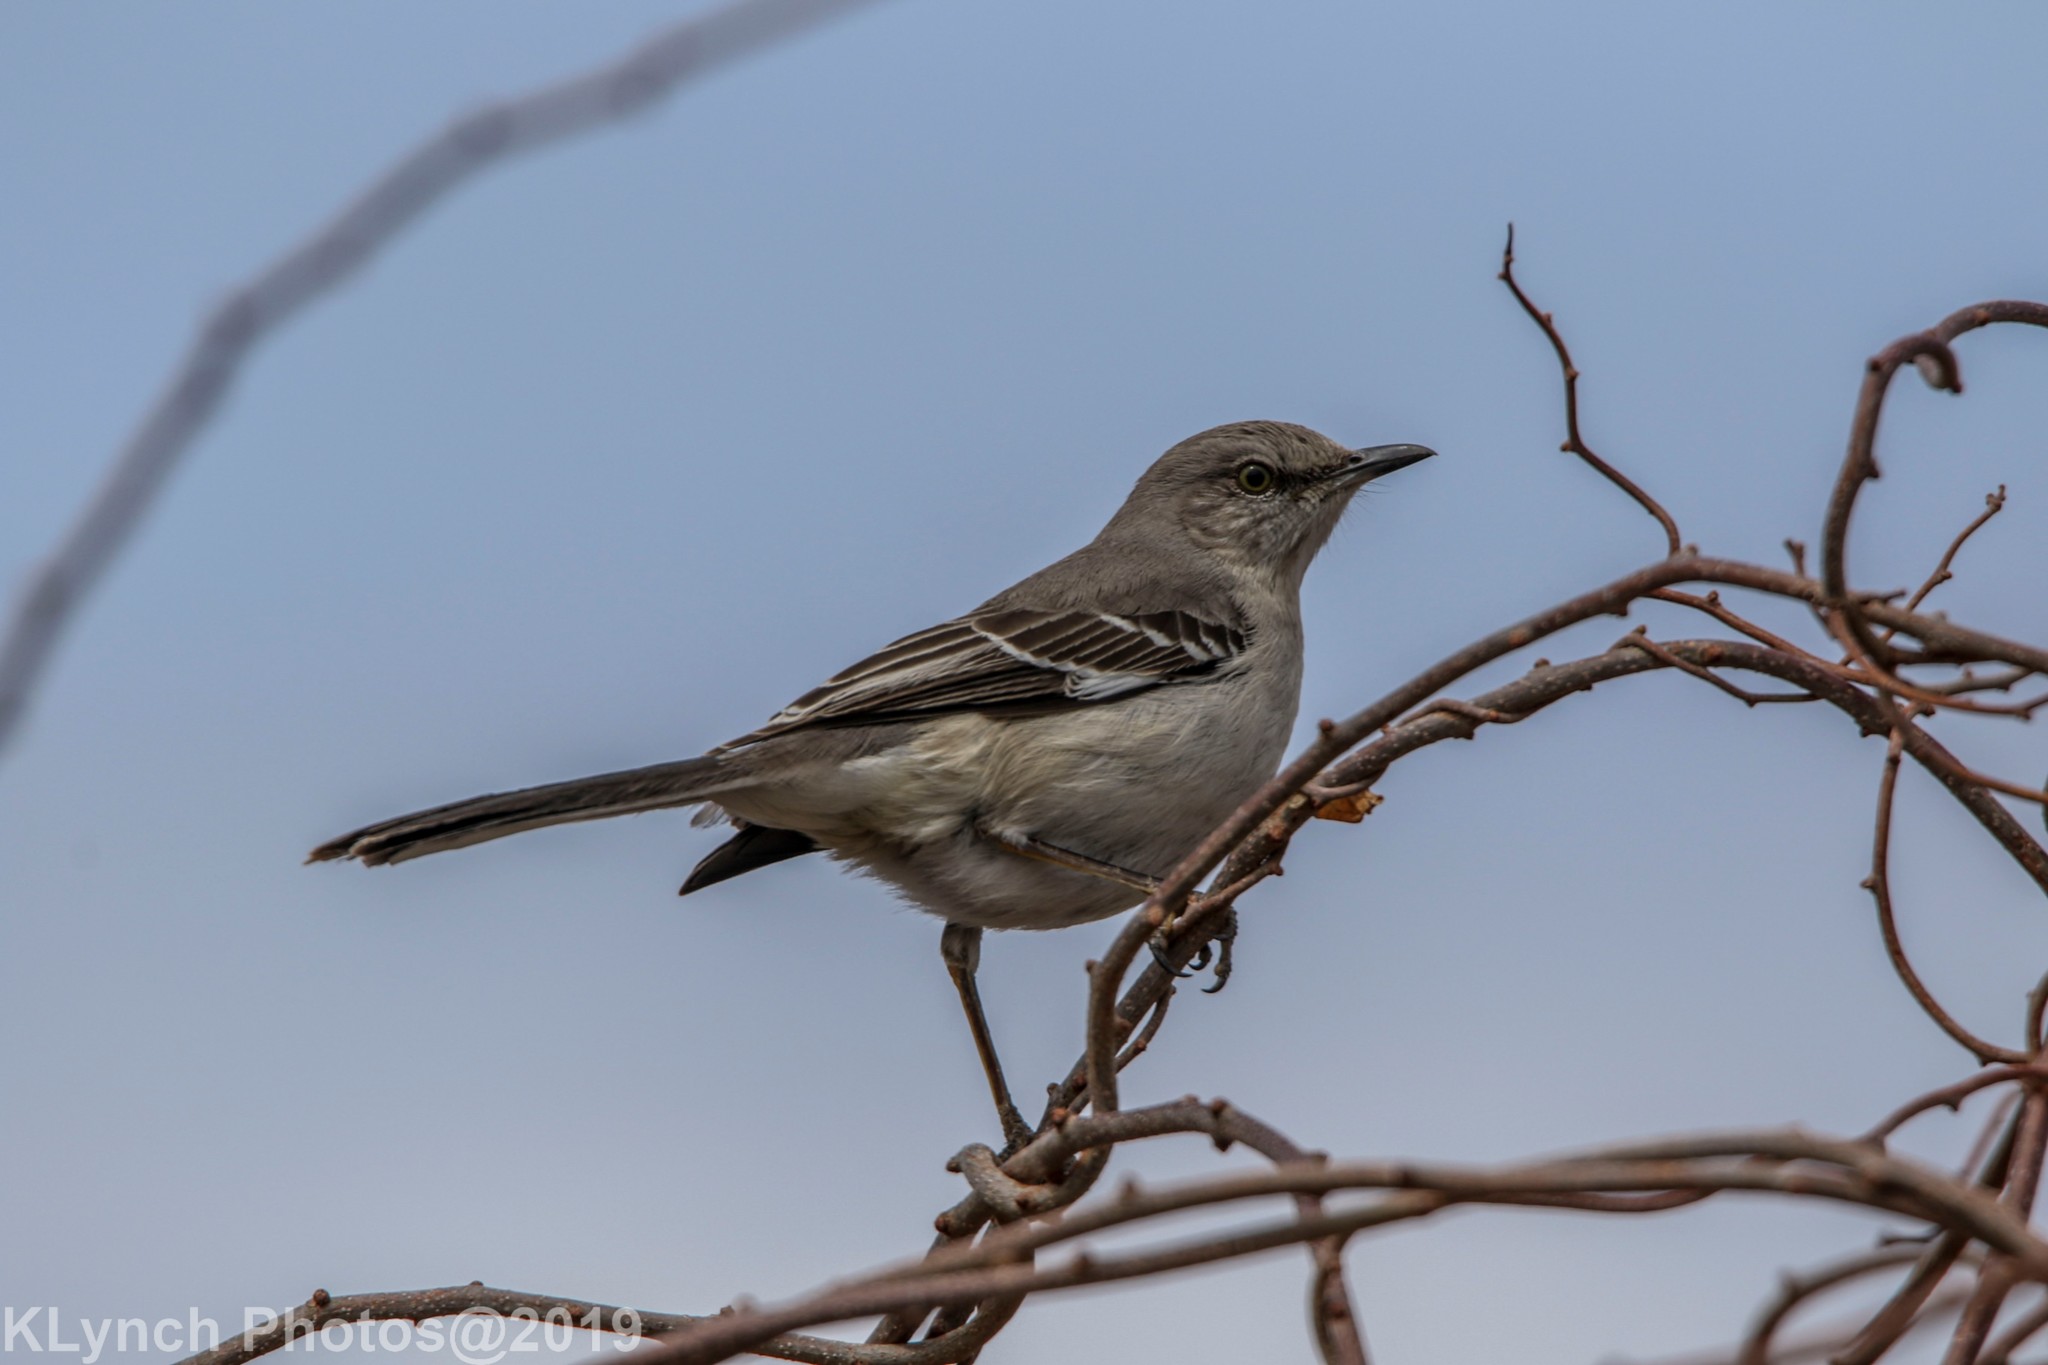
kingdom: Animalia
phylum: Chordata
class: Aves
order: Passeriformes
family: Mimidae
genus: Mimus
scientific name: Mimus polyglottos
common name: Northern mockingbird
